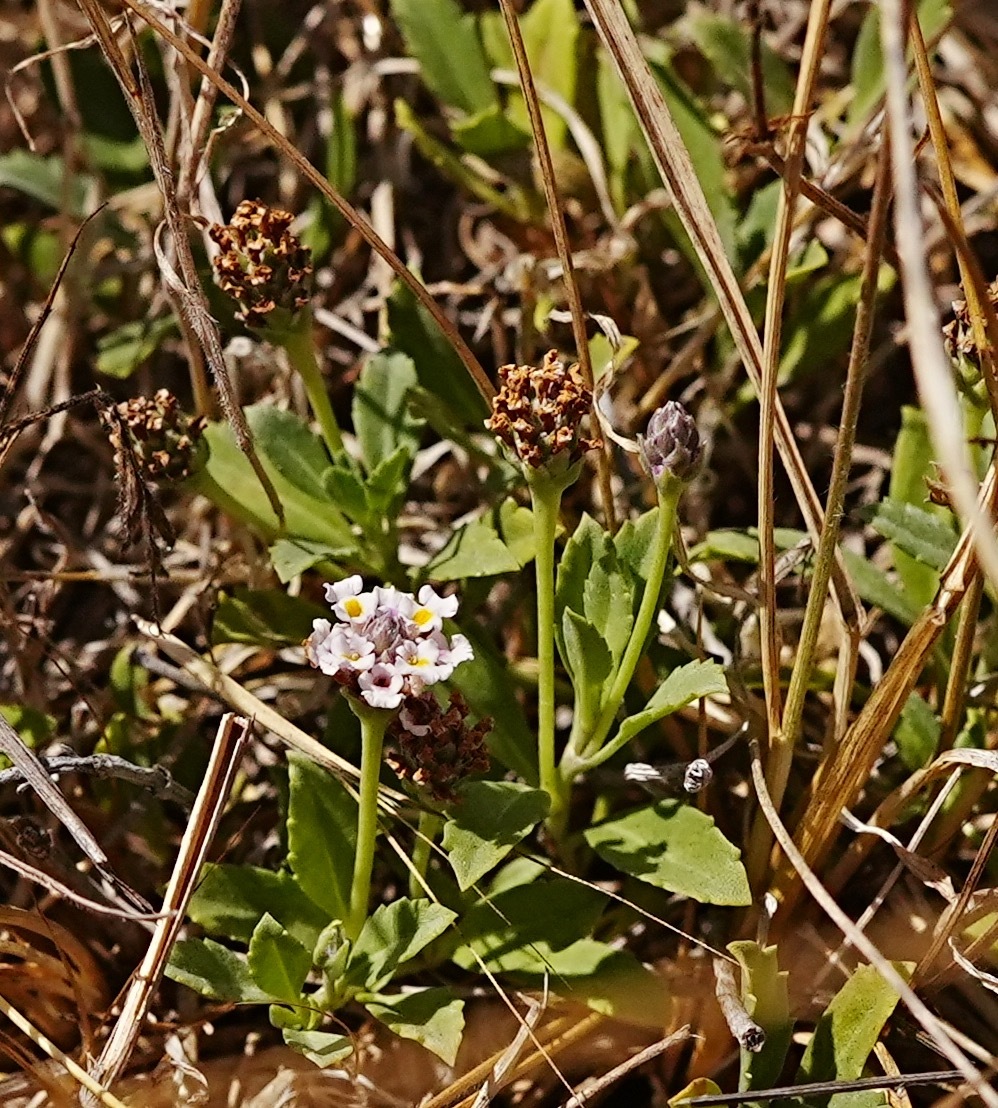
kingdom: Plantae
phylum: Tracheophyta
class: Magnoliopsida
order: Lamiales
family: Verbenaceae
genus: Phyla
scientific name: Phyla nodiflora
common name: Frogfruit
